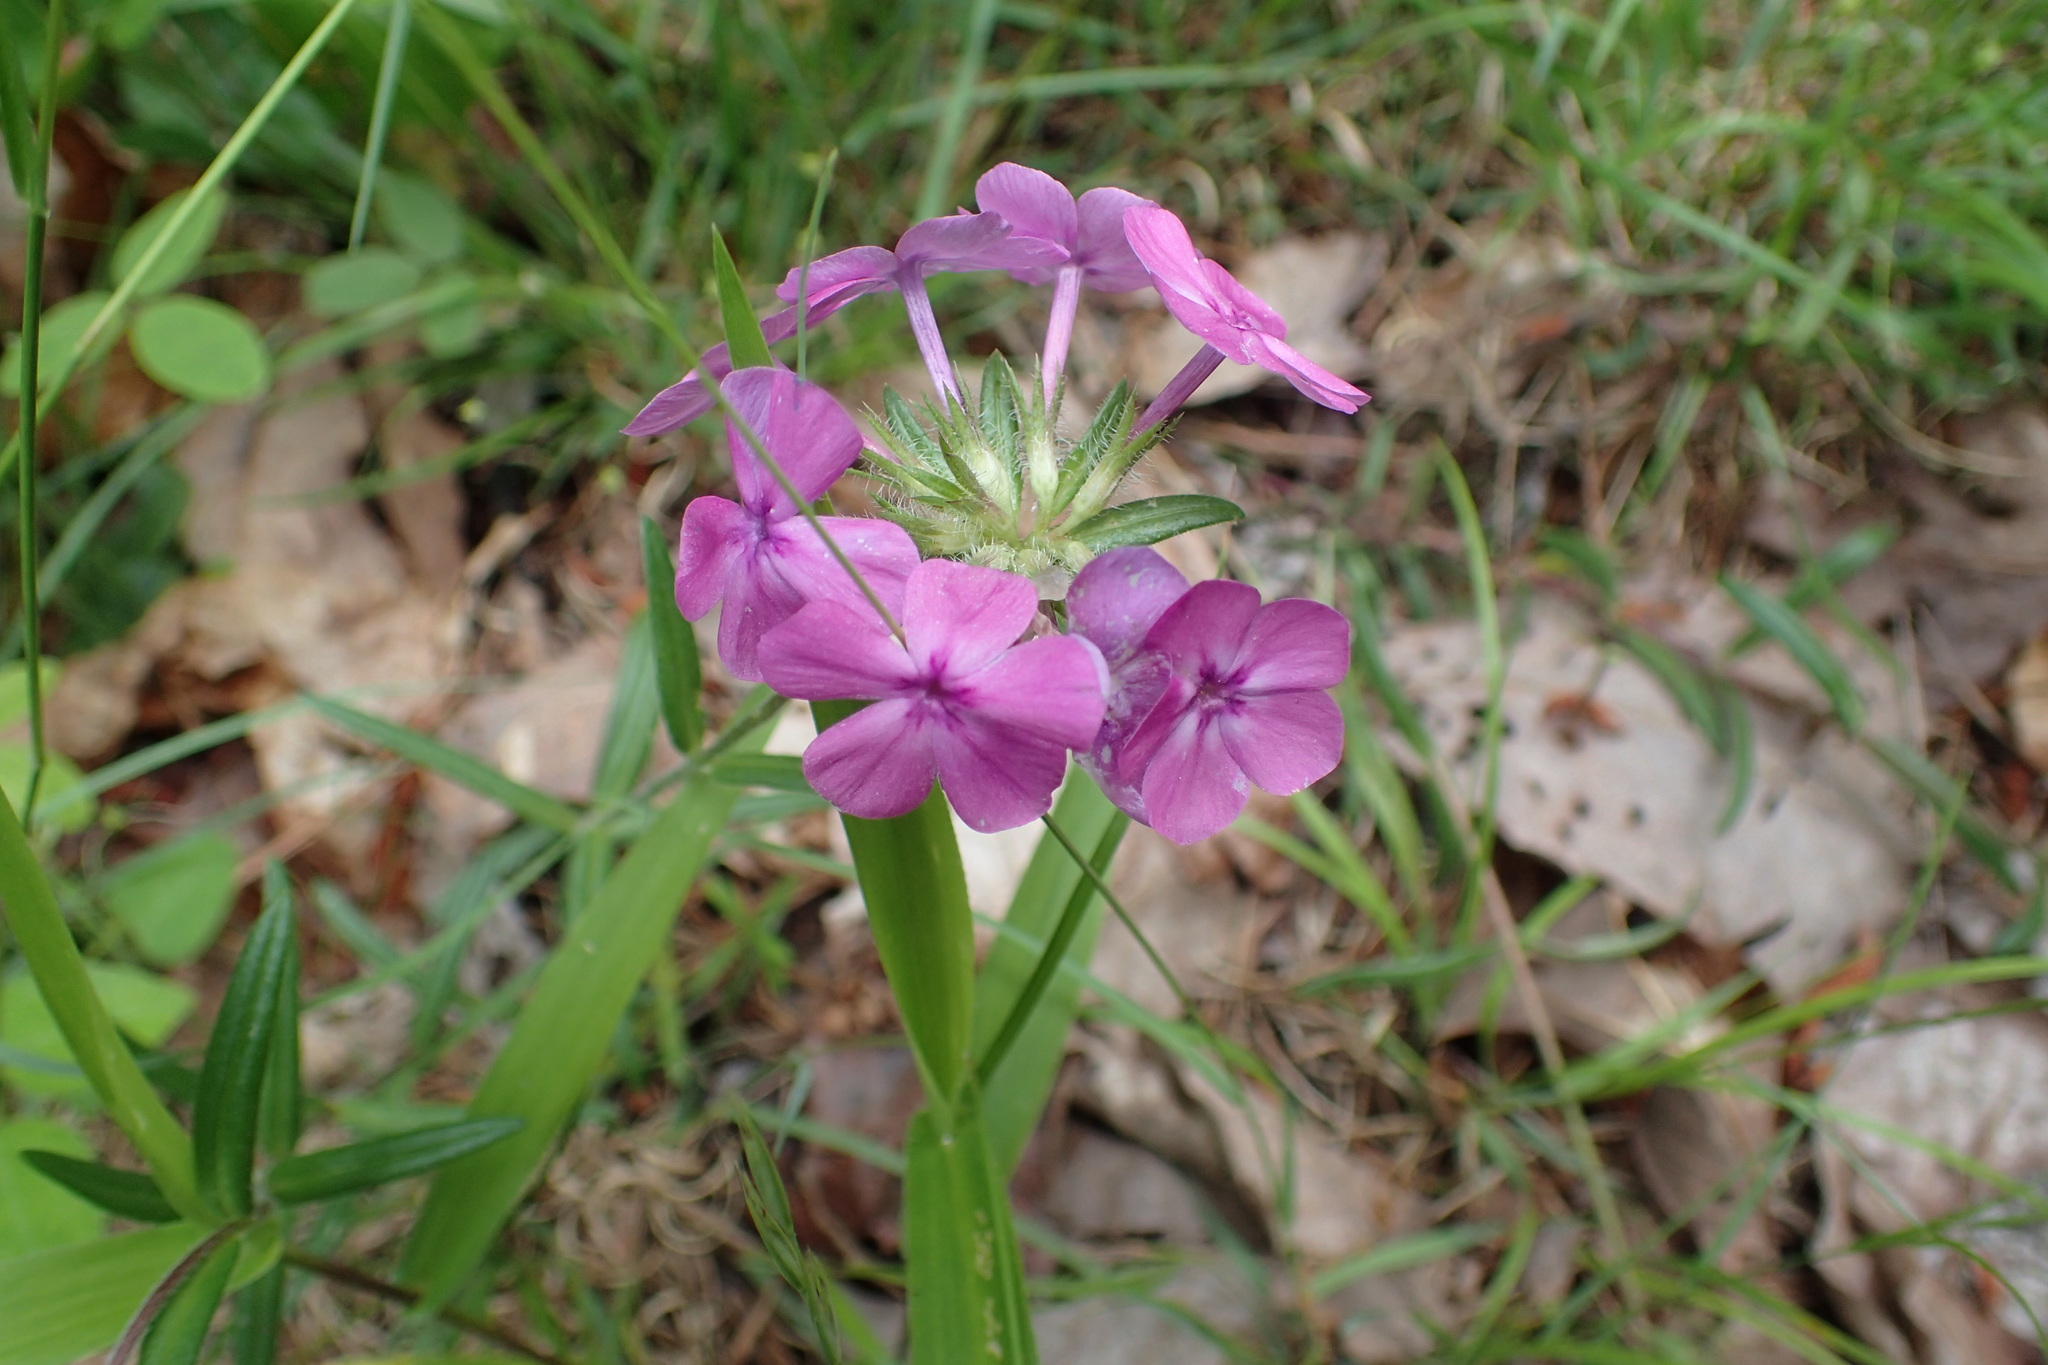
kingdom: Plantae
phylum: Tracheophyta
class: Magnoliopsida
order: Ericales
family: Polemoniaceae
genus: Phlox
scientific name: Phlox amoena
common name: Hairy phlox
